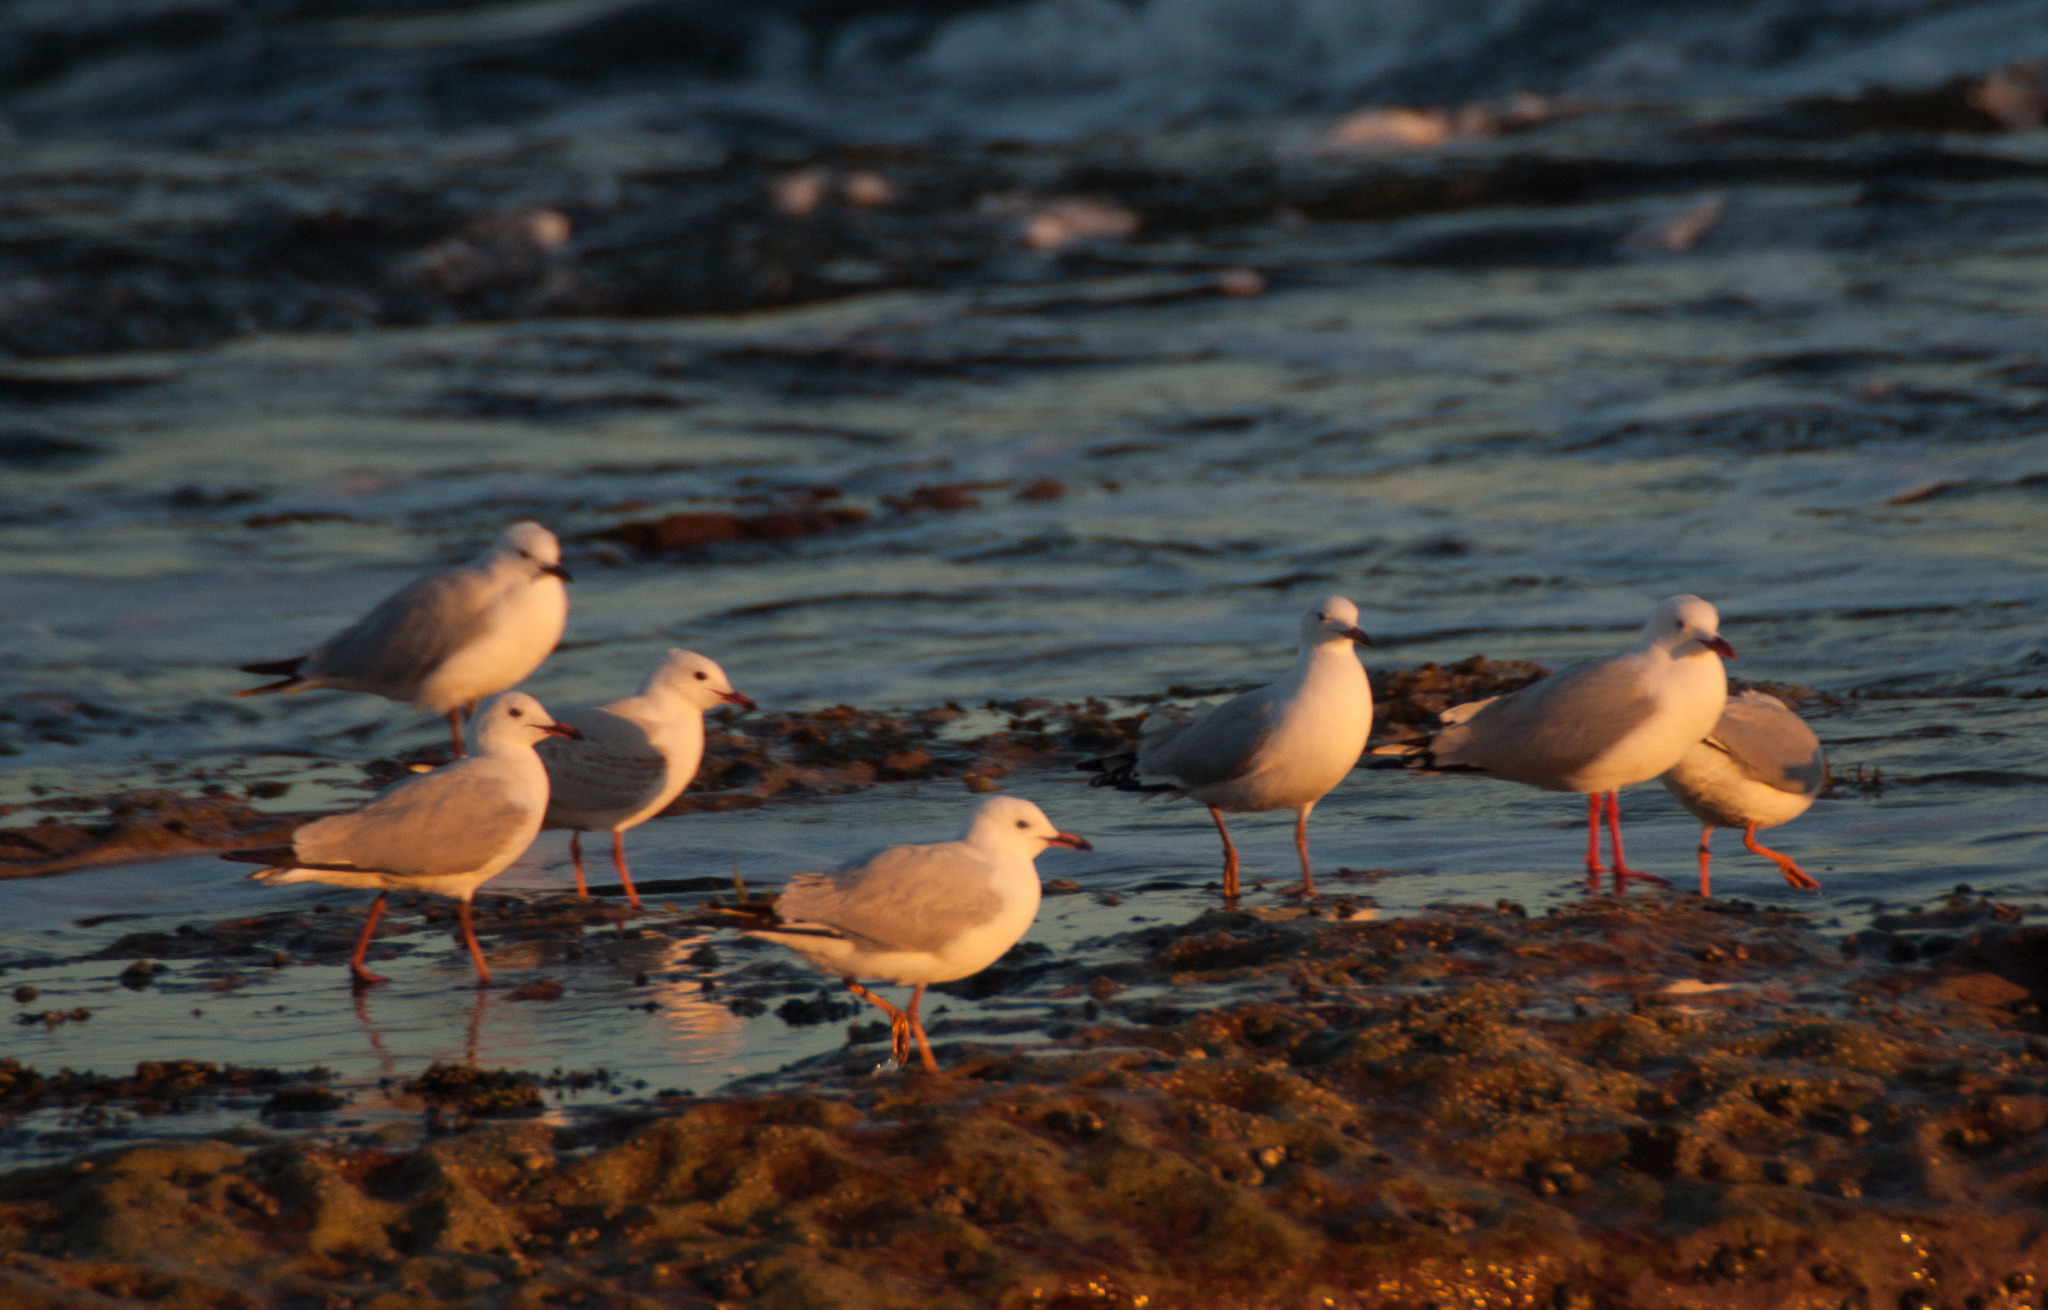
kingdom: Animalia
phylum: Chordata
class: Aves
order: Charadriiformes
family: Laridae
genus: Chroicocephalus
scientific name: Chroicocephalus novaehollandiae
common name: Silver gull
